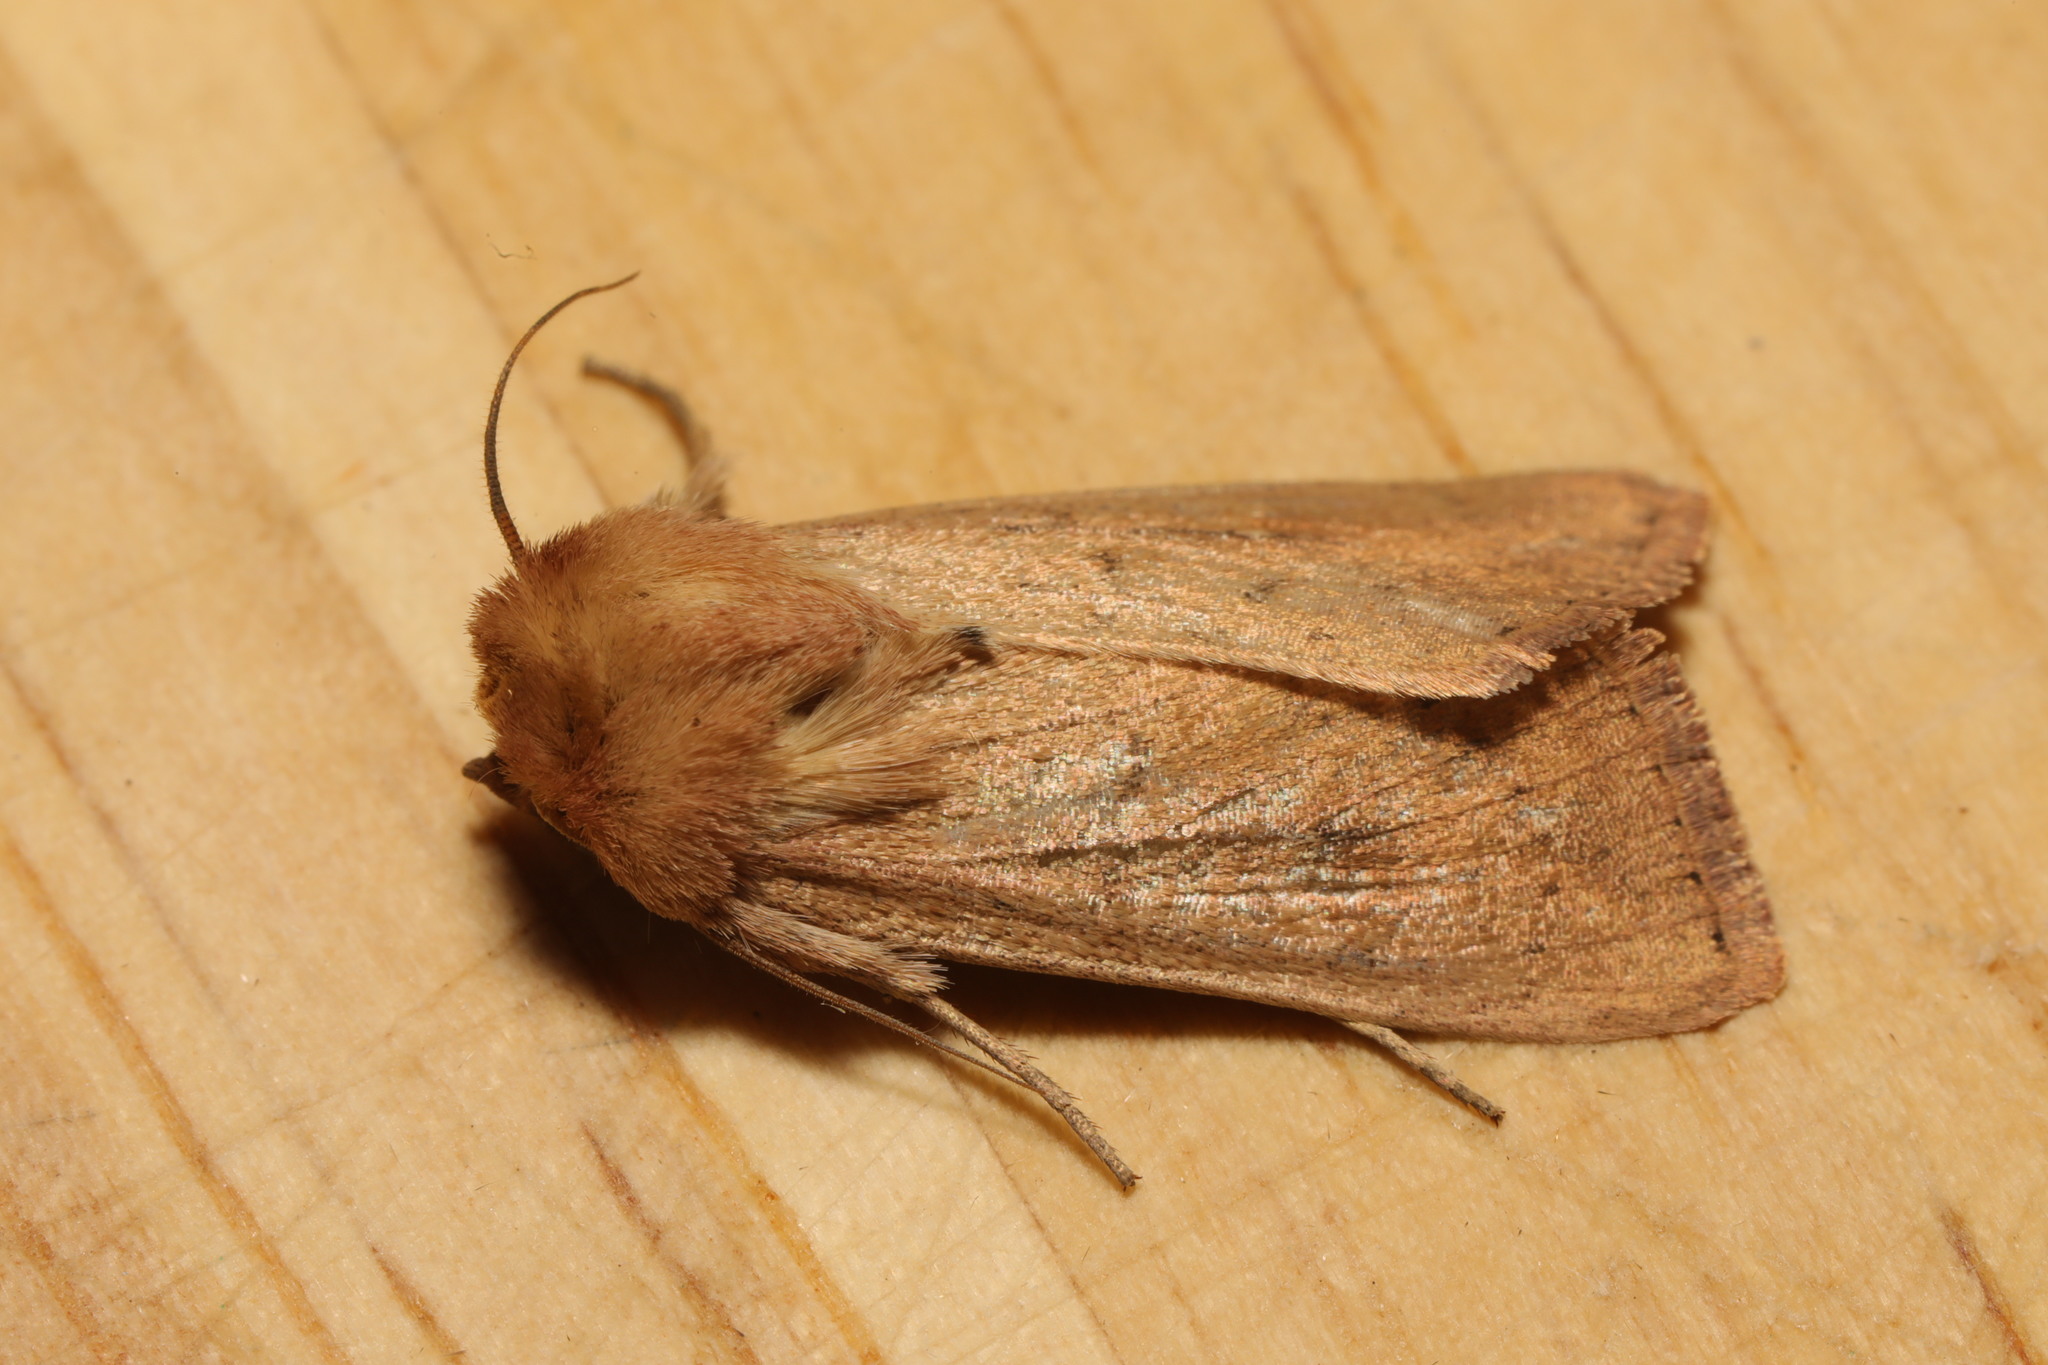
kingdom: Animalia
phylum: Arthropoda
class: Insecta
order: Lepidoptera
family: Noctuidae
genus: Mythimna
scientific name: Mythimna ferrago
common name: Clay
